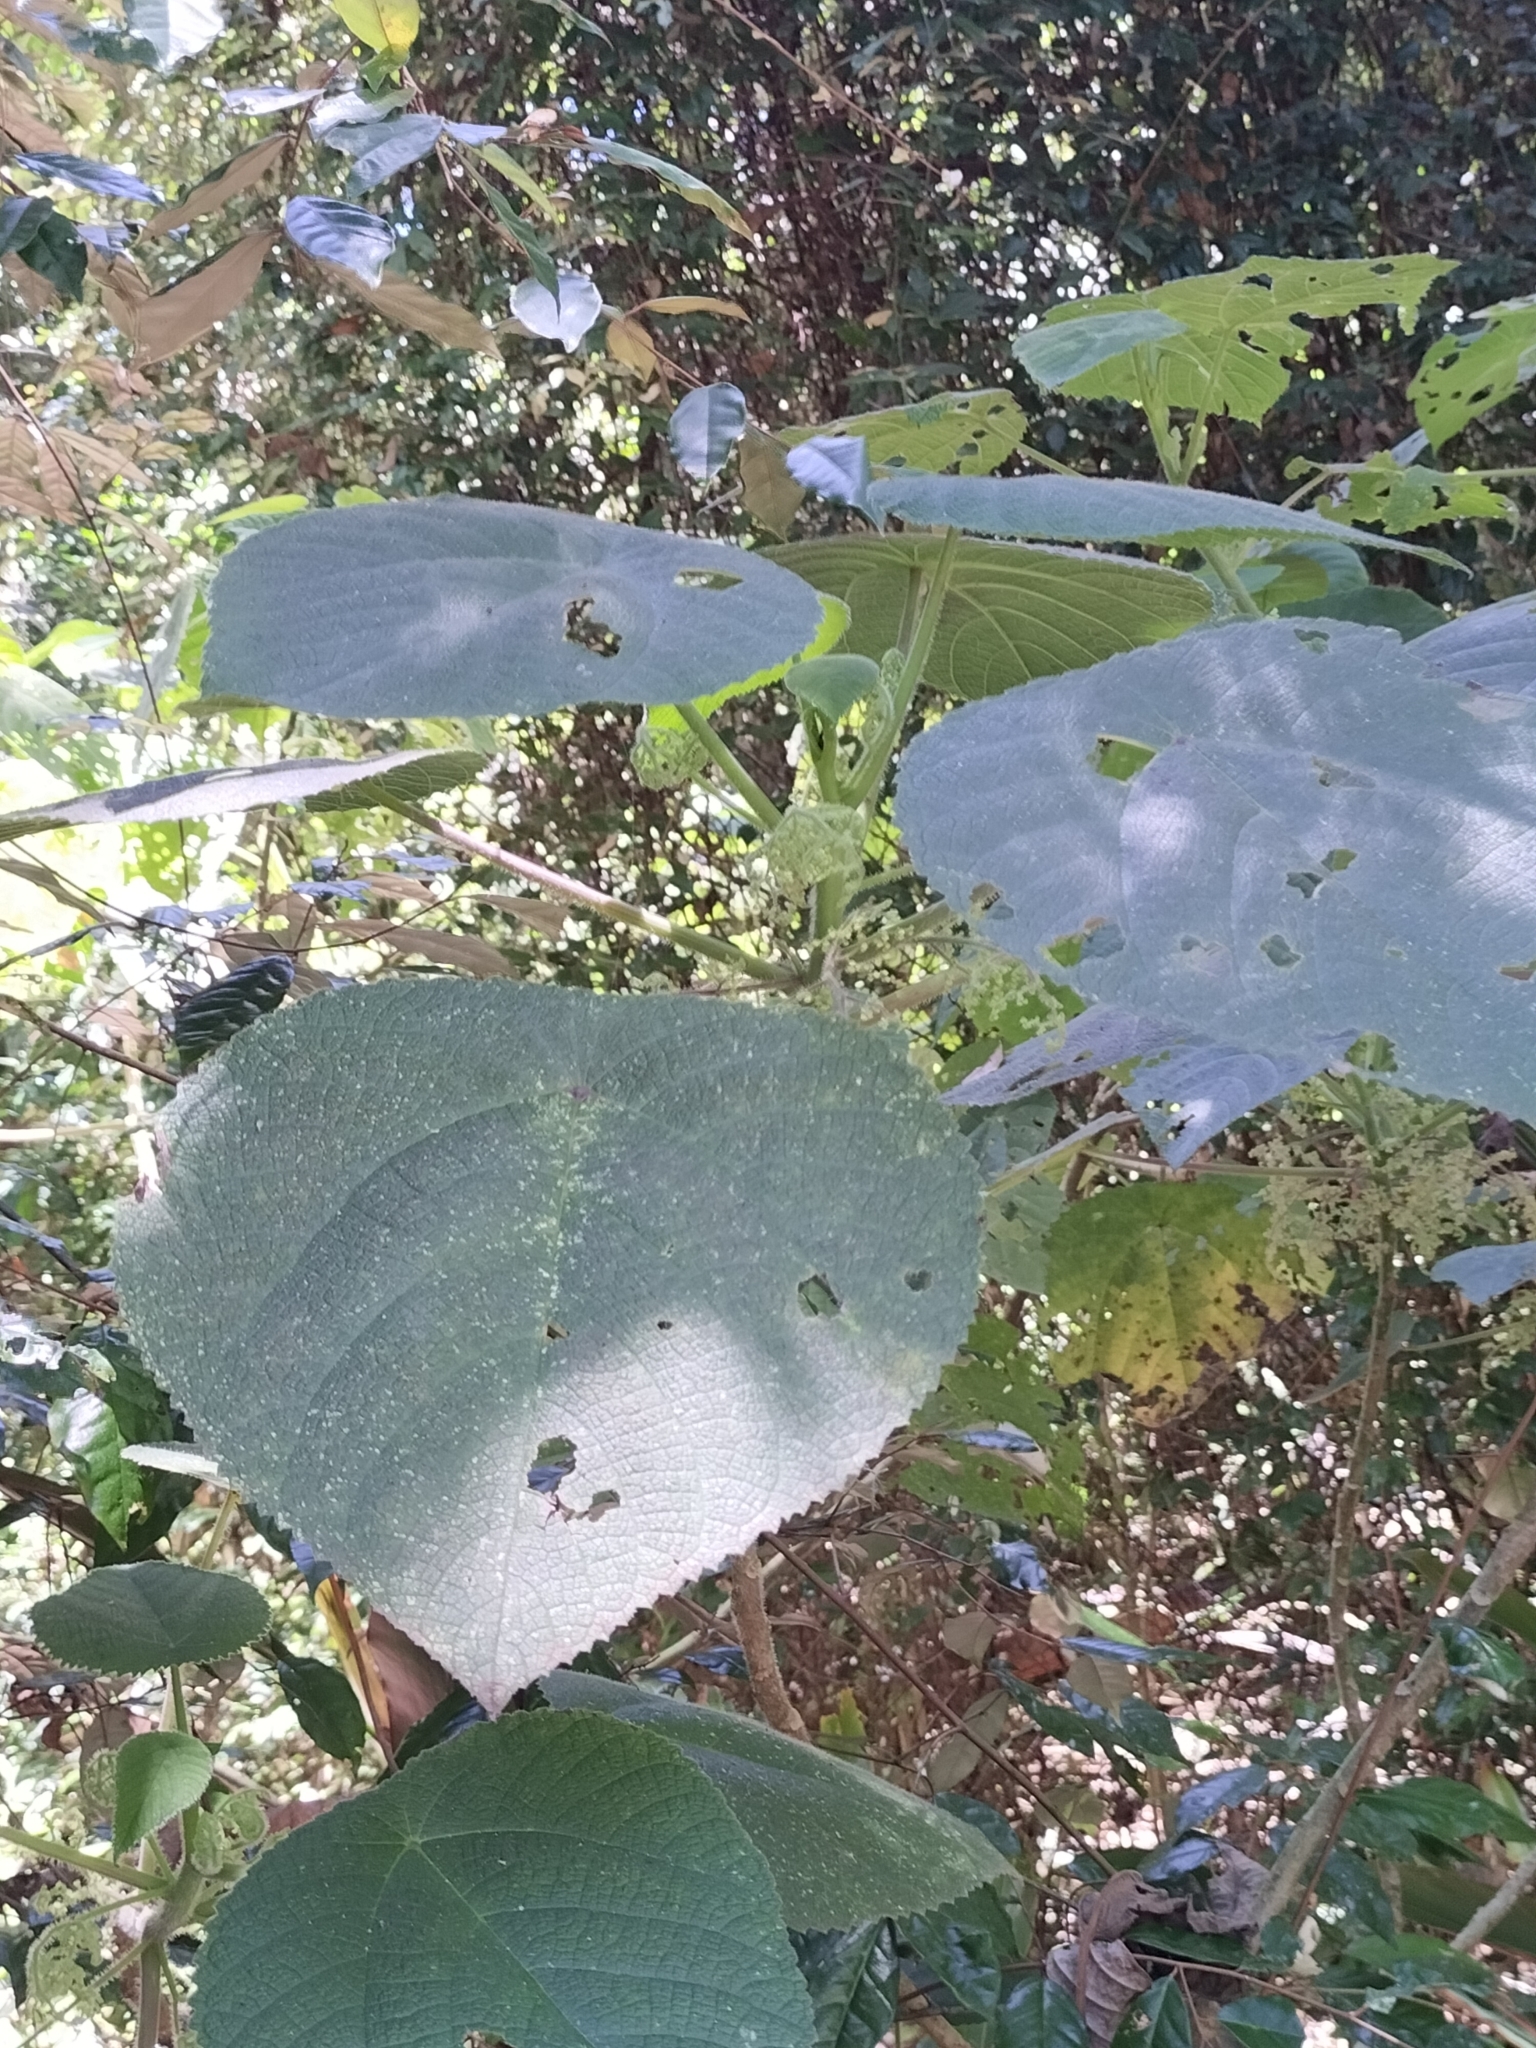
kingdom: Plantae
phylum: Tracheophyta
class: Magnoliopsida
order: Rosales
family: Urticaceae
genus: Dendrocnide
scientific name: Dendrocnide moroides
